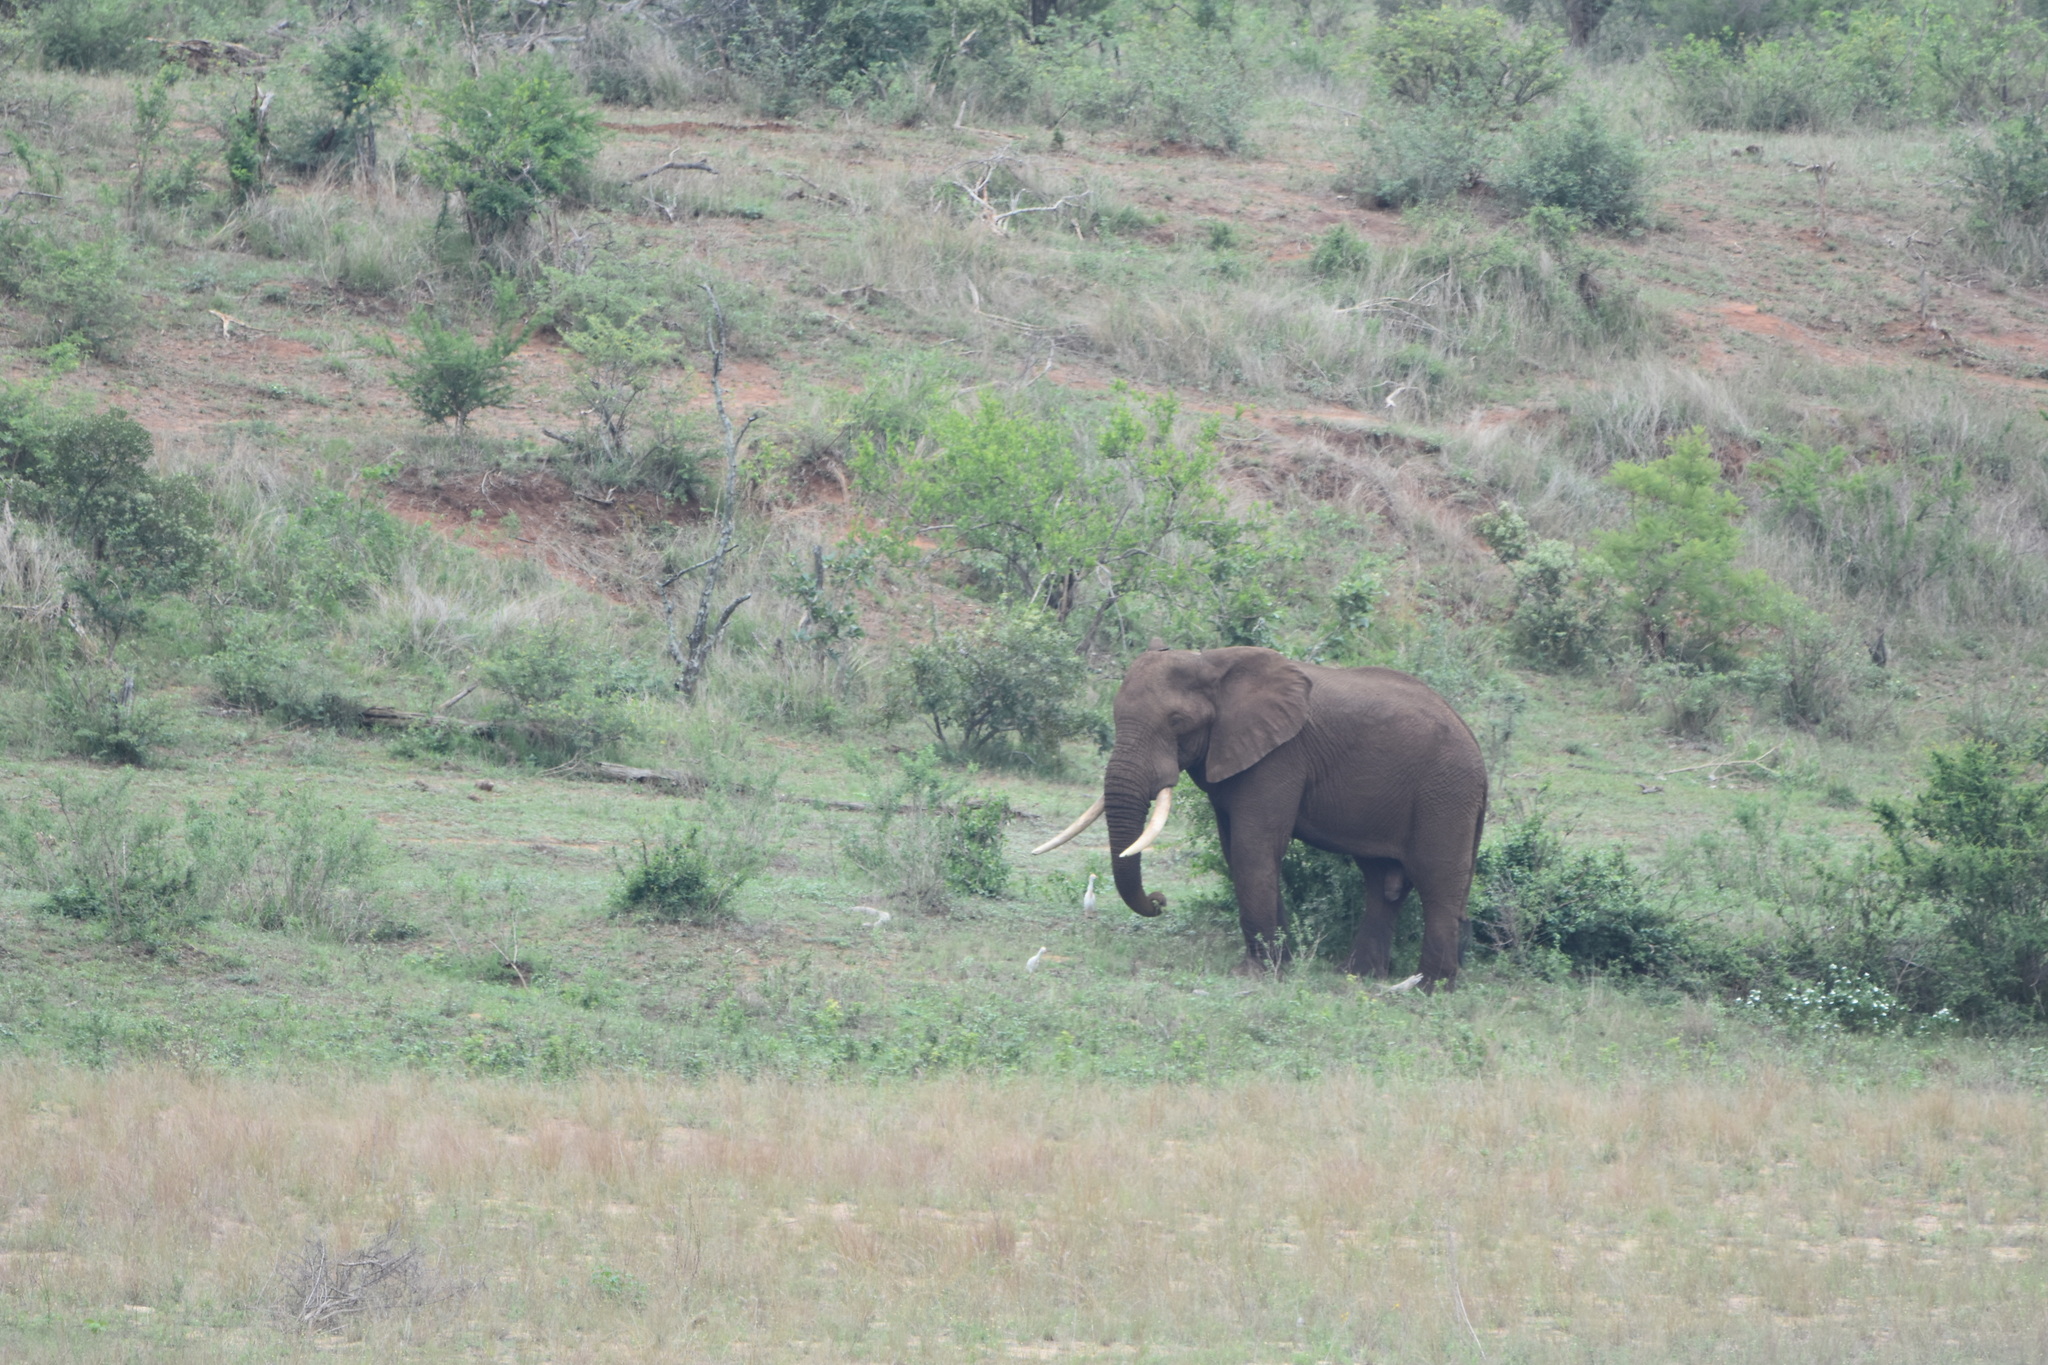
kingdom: Animalia
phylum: Chordata
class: Mammalia
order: Proboscidea
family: Elephantidae
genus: Loxodonta
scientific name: Loxodonta africana
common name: African elephant
